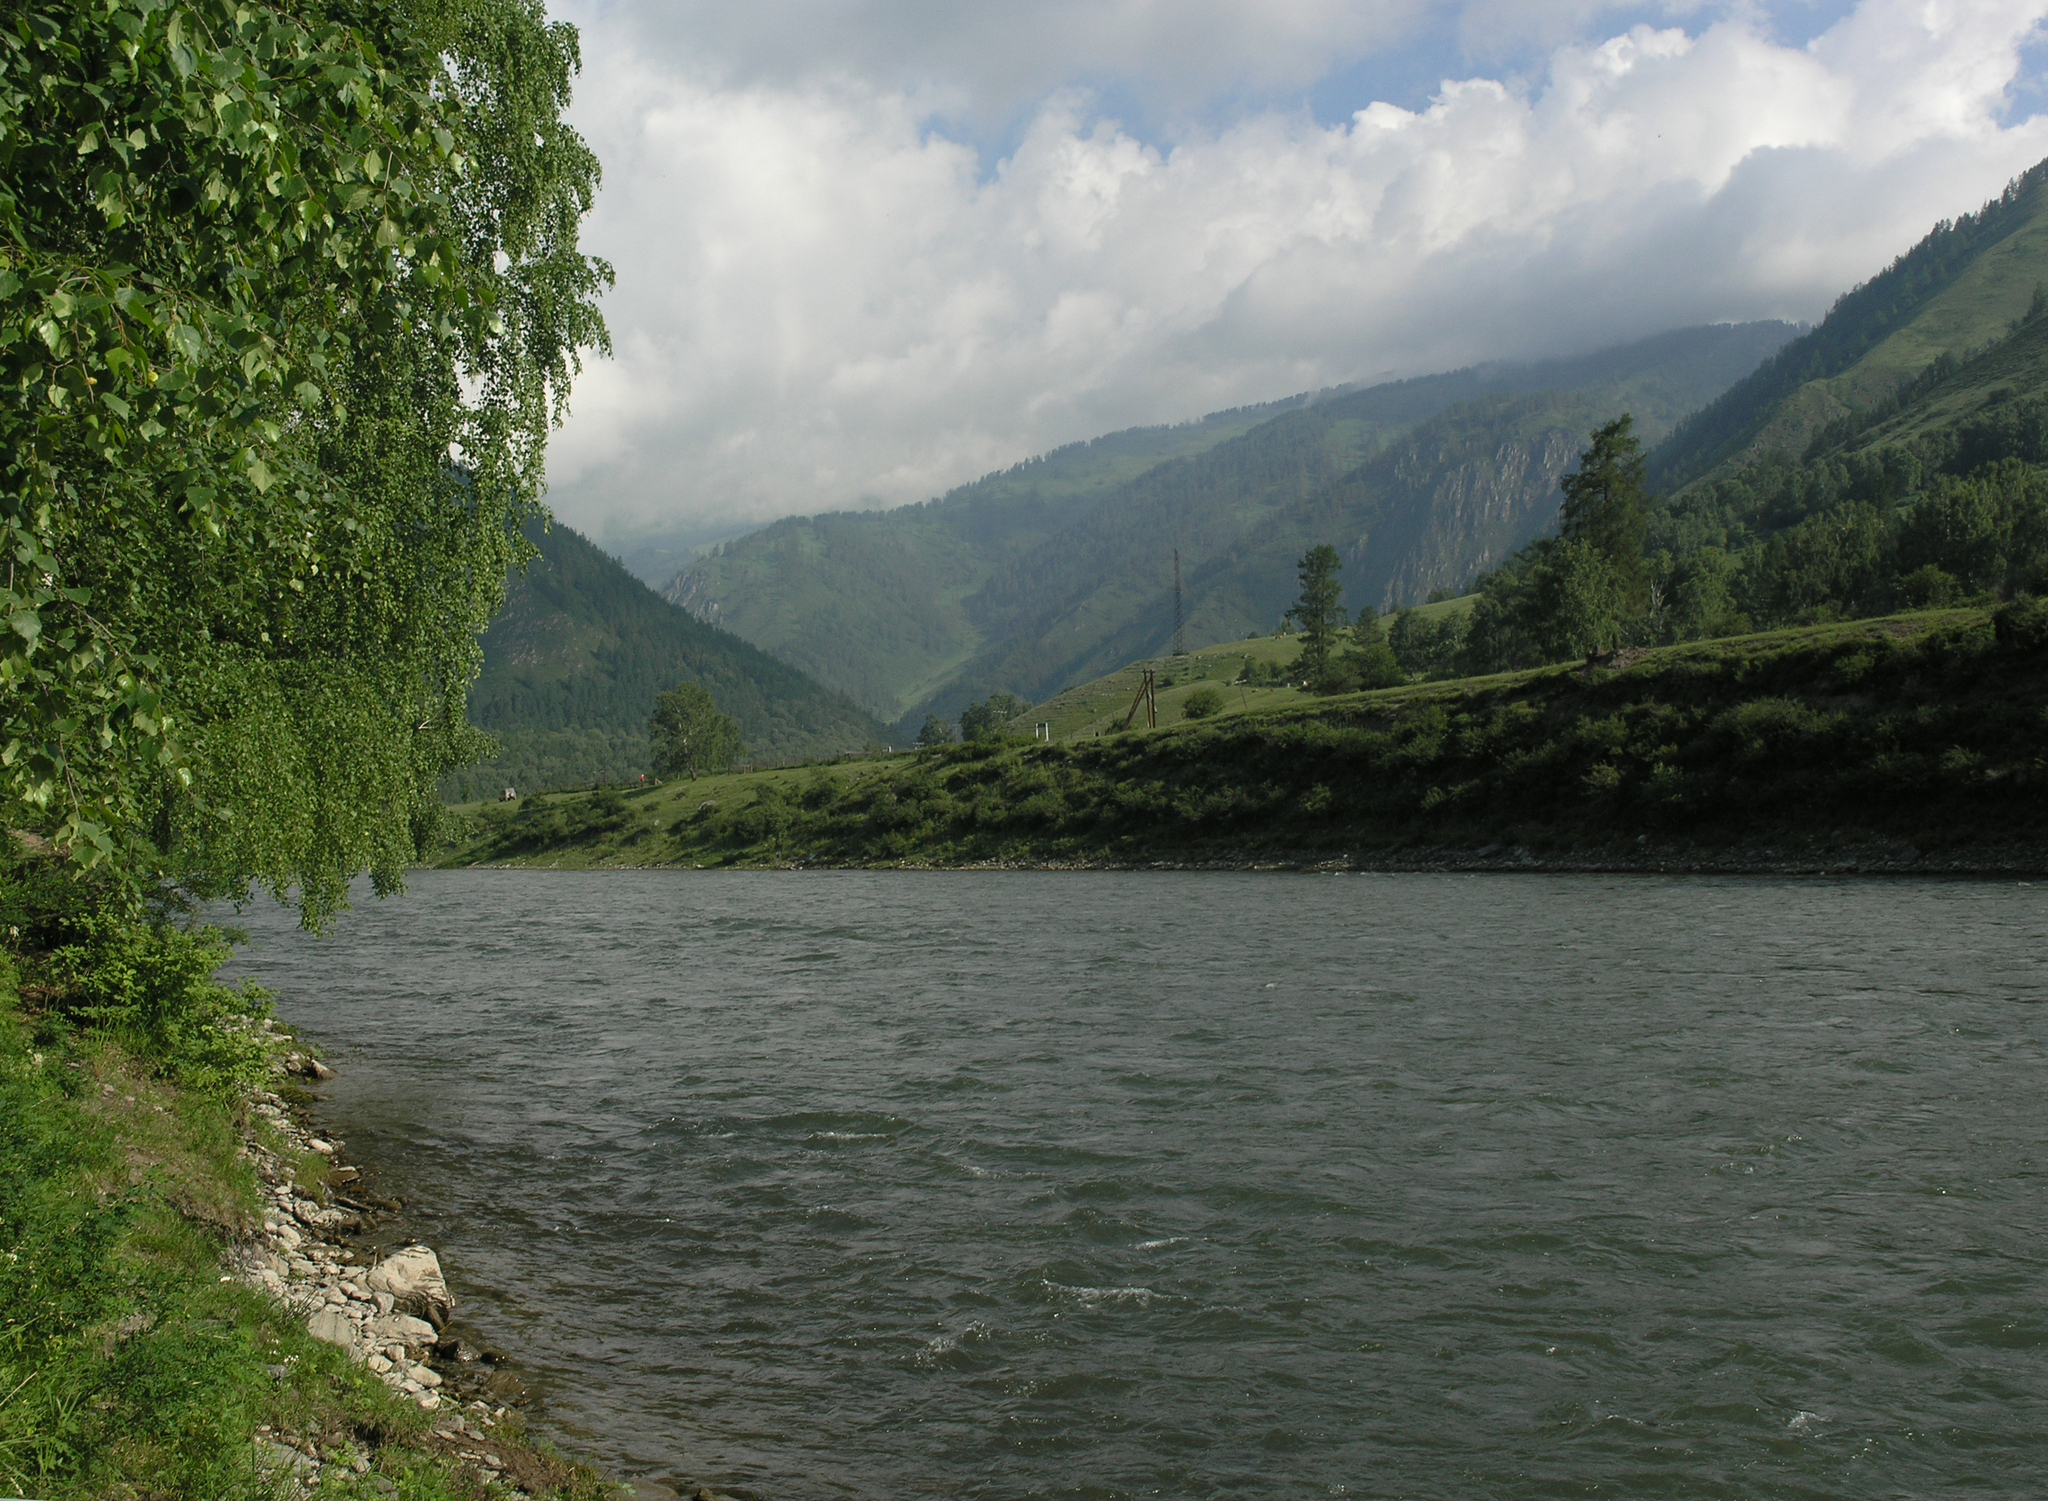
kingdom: Plantae
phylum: Tracheophyta
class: Magnoliopsida
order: Fagales
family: Betulaceae
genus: Betula
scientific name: Betula pendula
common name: Silver birch
